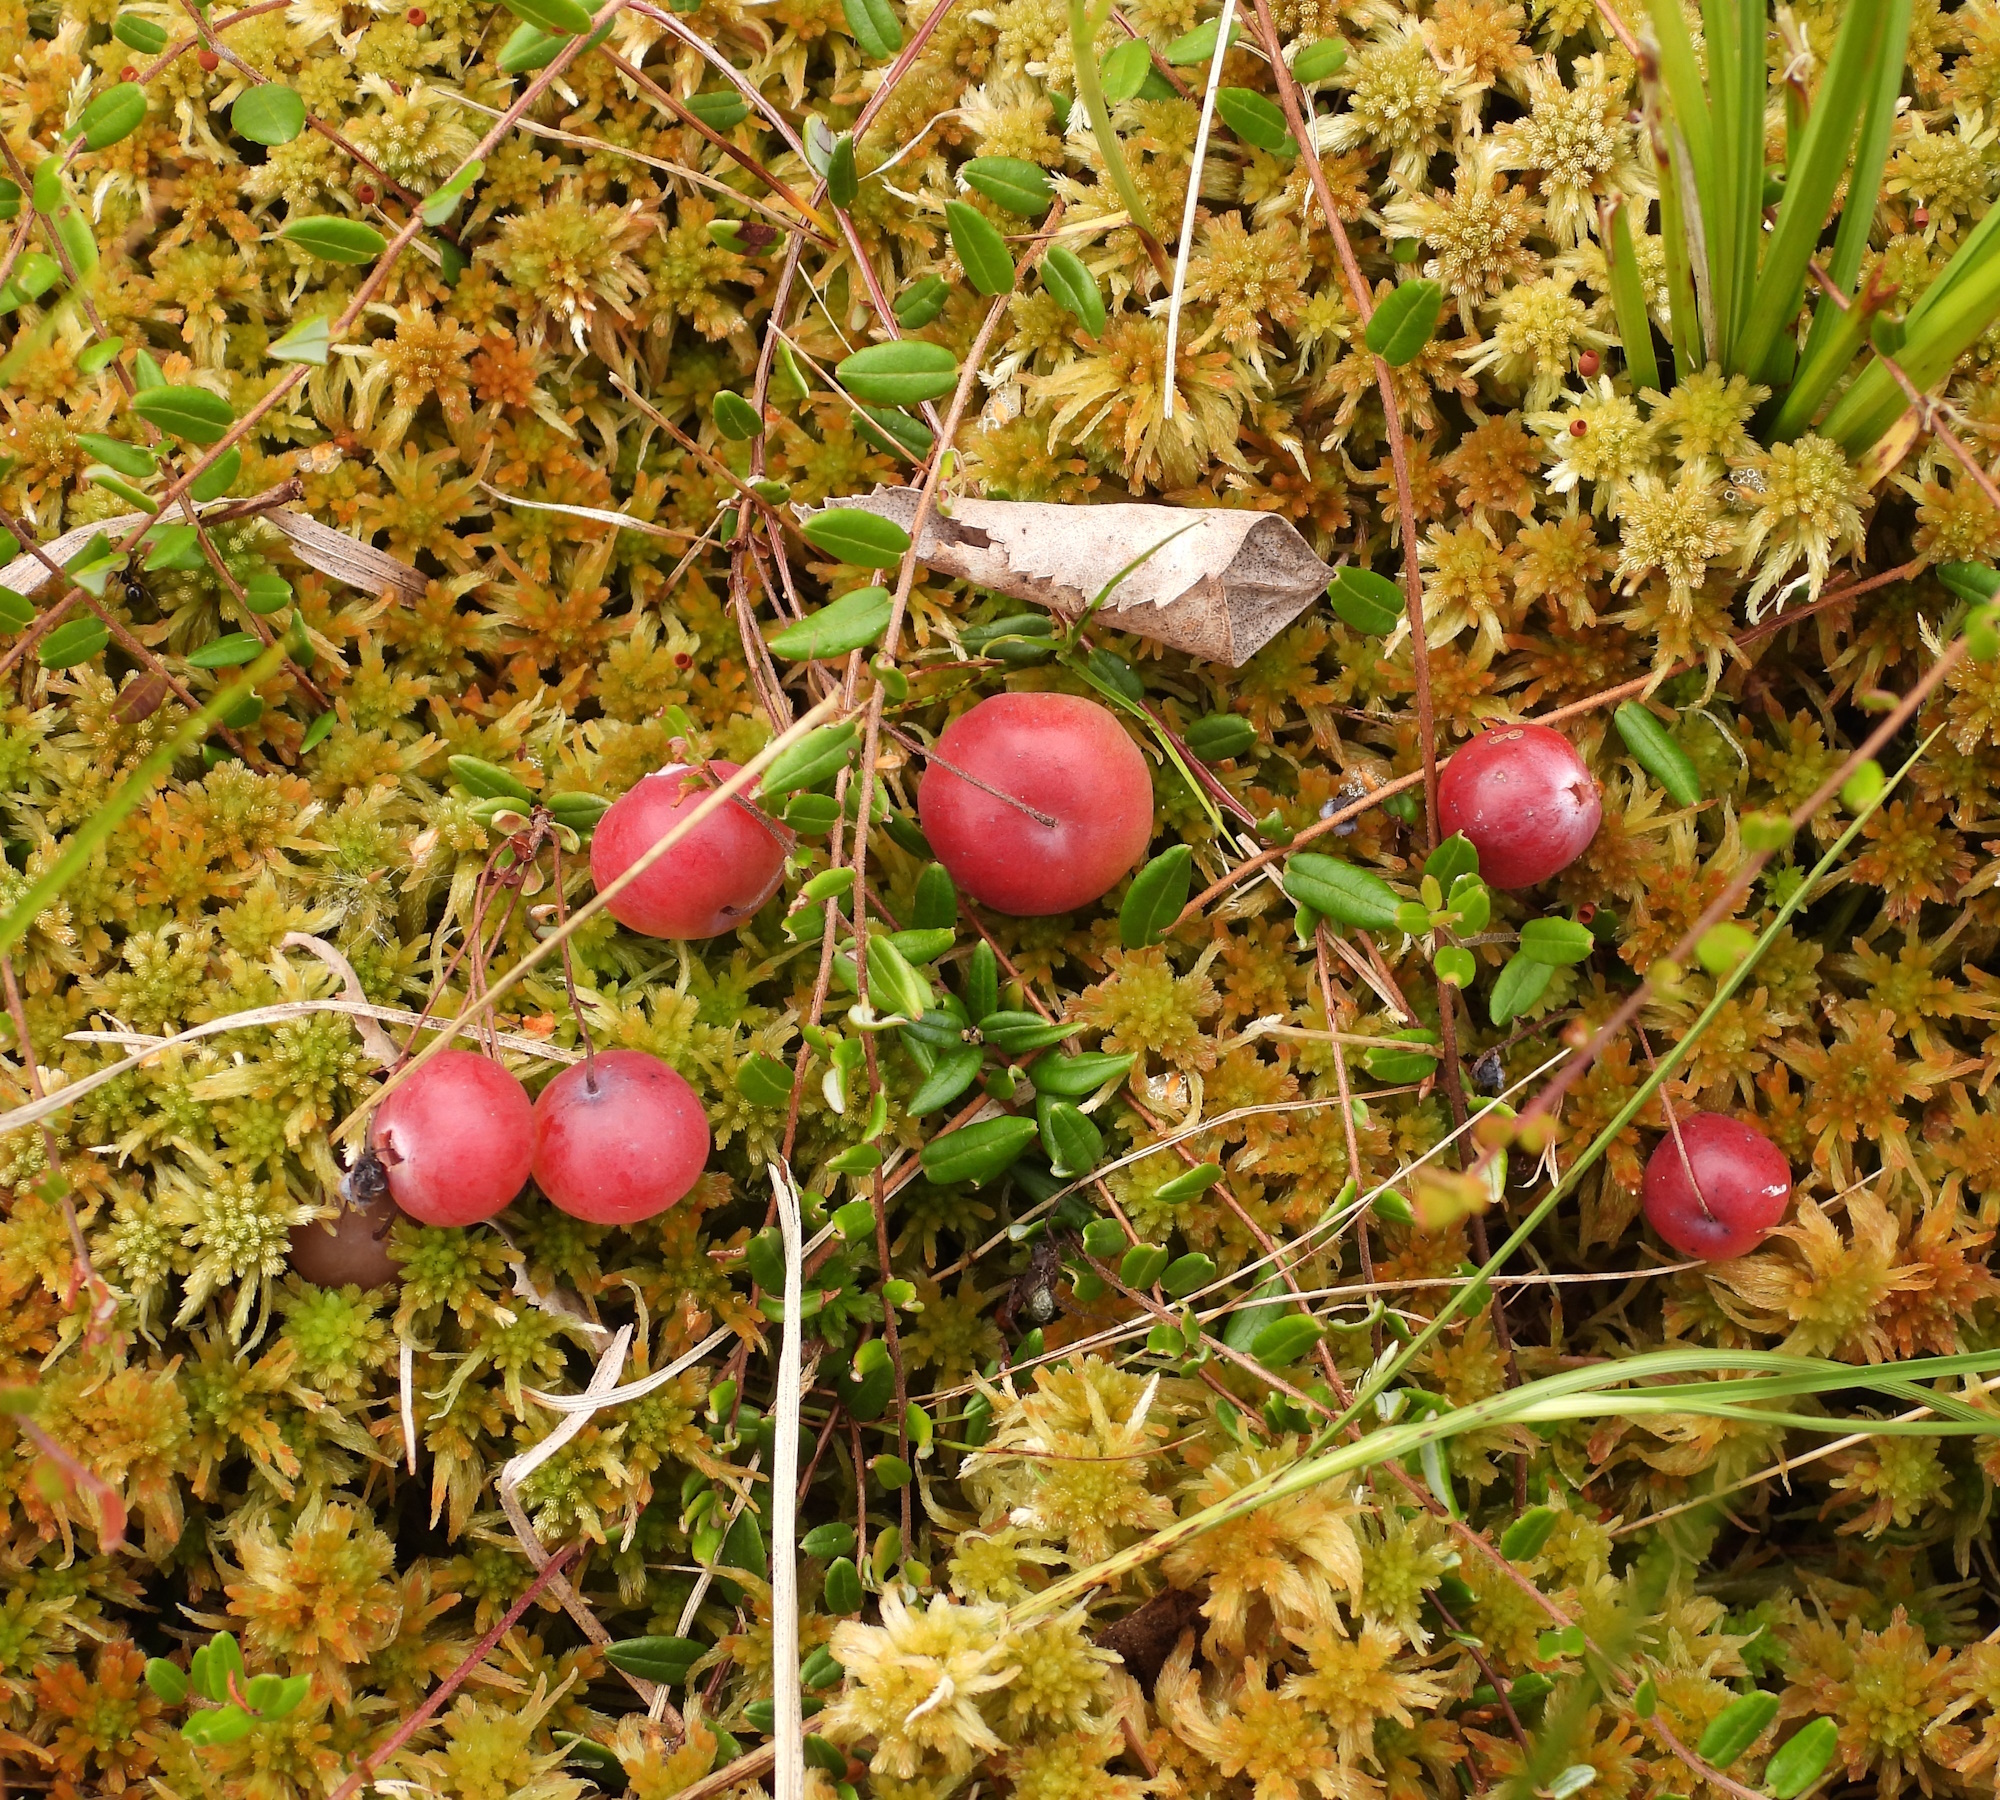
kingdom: Plantae
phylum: Tracheophyta
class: Magnoliopsida
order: Ericales
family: Ericaceae
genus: Vaccinium
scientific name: Vaccinium oxycoccos
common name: Cranberry
